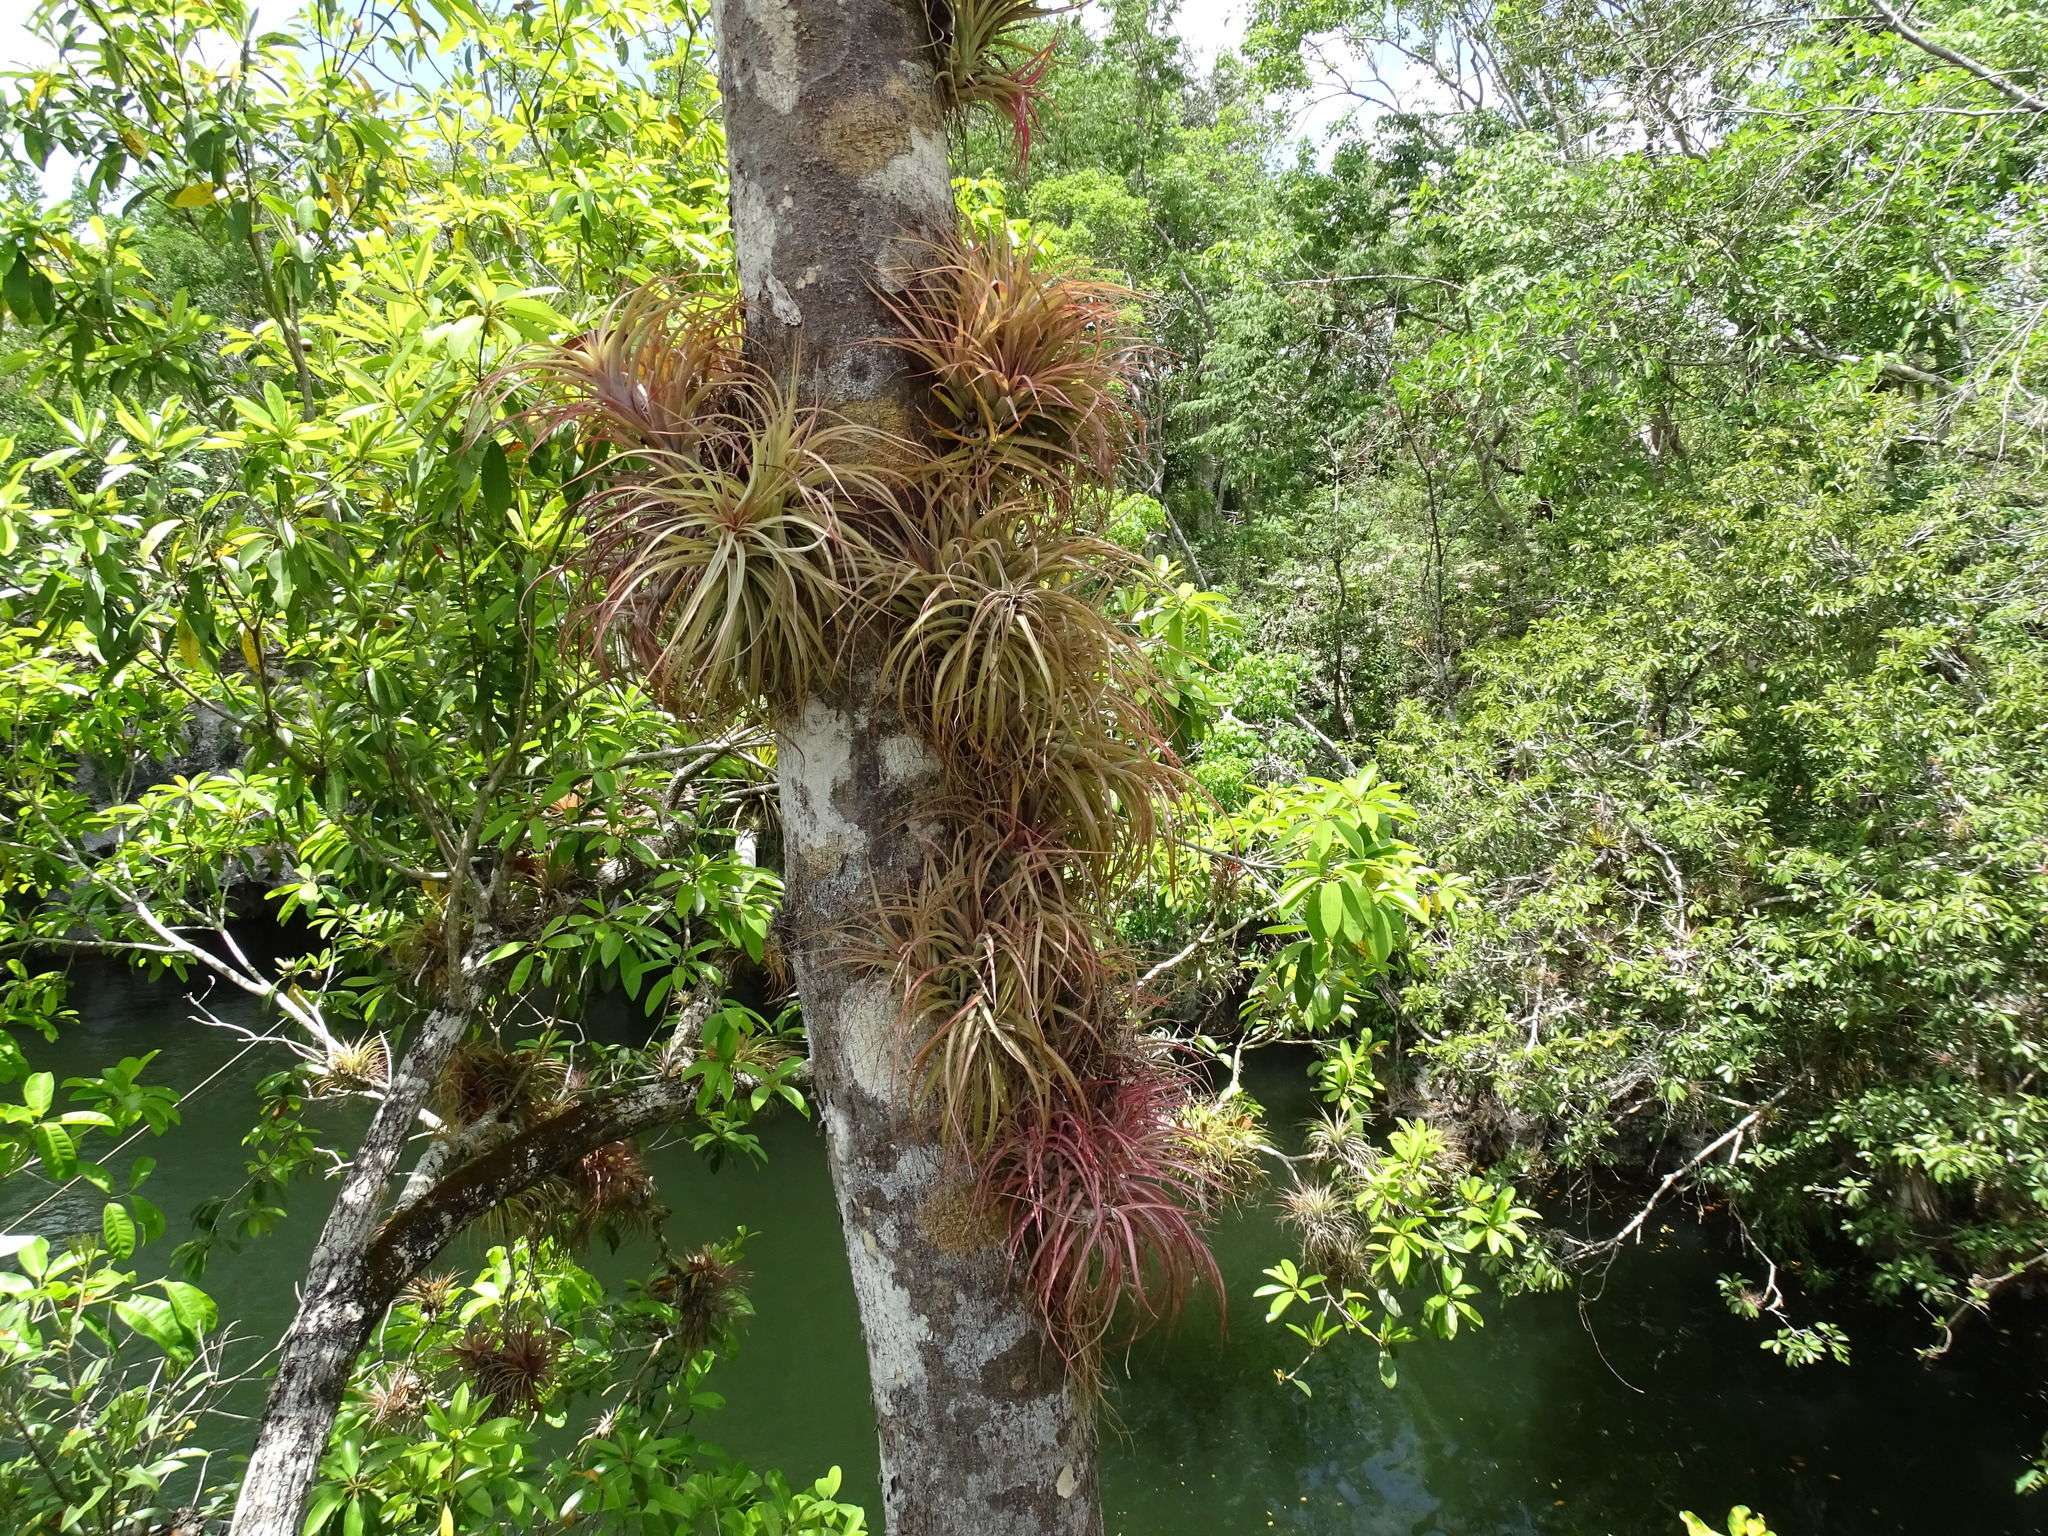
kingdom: Plantae
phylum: Tracheophyta
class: Liliopsida
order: Poales
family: Bromeliaceae
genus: Tillandsia
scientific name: Tillandsia brachycaulos
